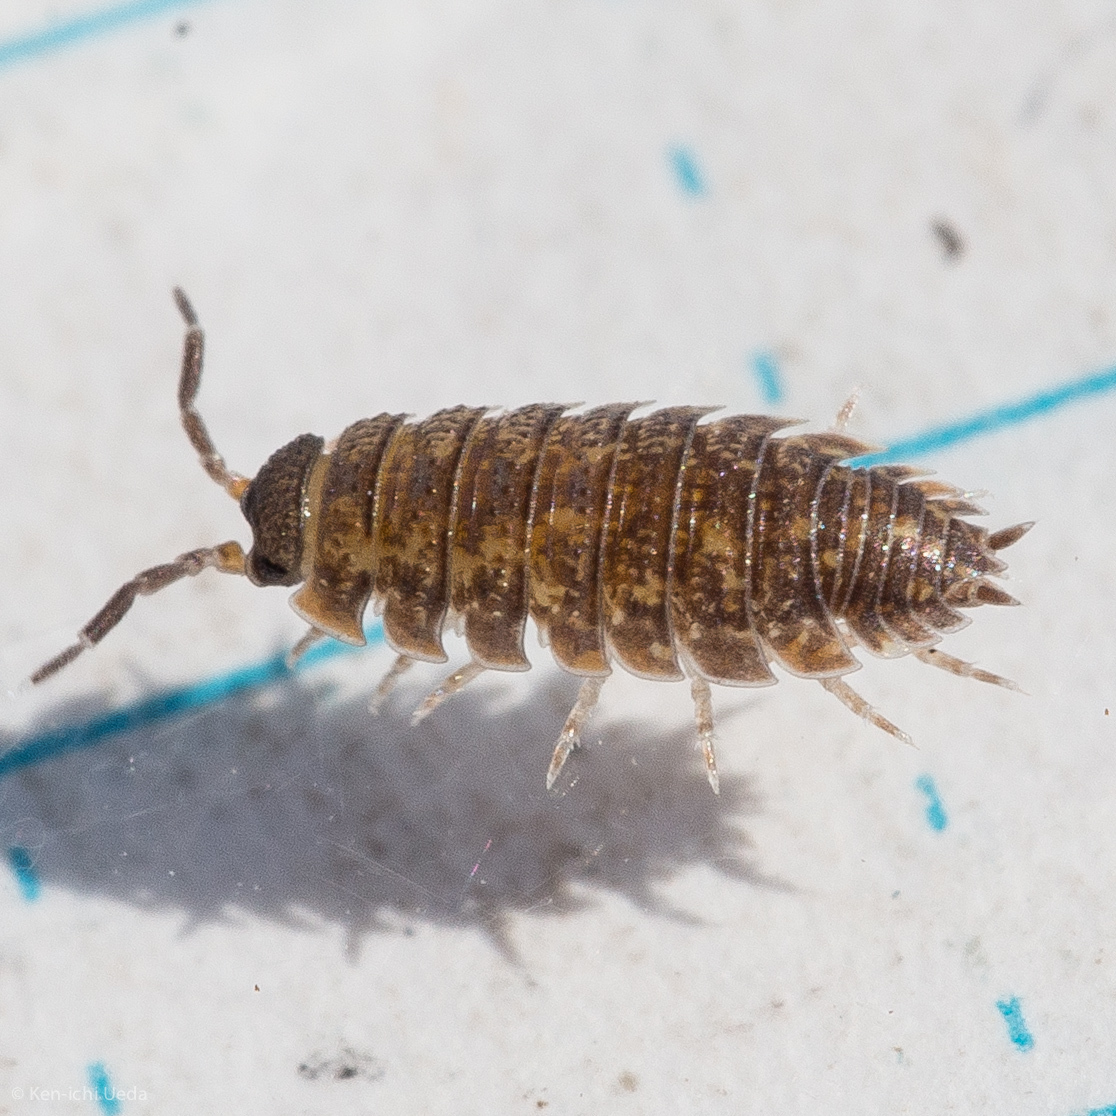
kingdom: Animalia
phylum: Arthropoda
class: Malacostraca
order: Isopoda
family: Porcellionidae
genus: Porcellio
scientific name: Porcellio scaber
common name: Common rough woodlouse
